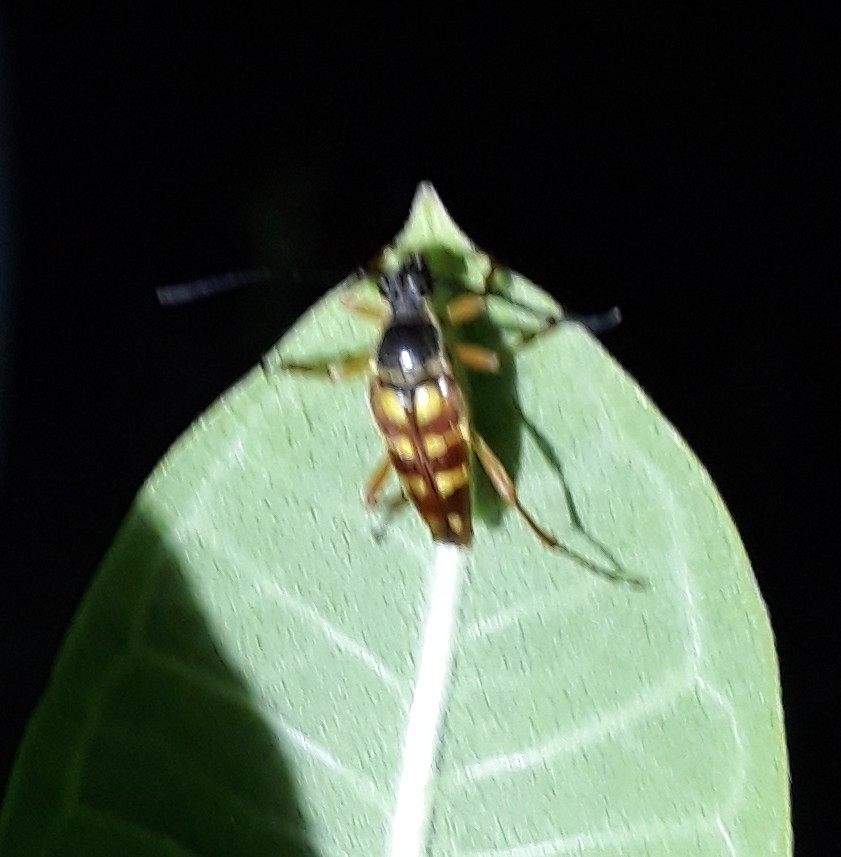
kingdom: Animalia
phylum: Arthropoda
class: Insecta
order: Coleoptera
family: Cerambycidae
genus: Typocerus
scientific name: Typocerus velutinus
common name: Banded longhorn beetle
